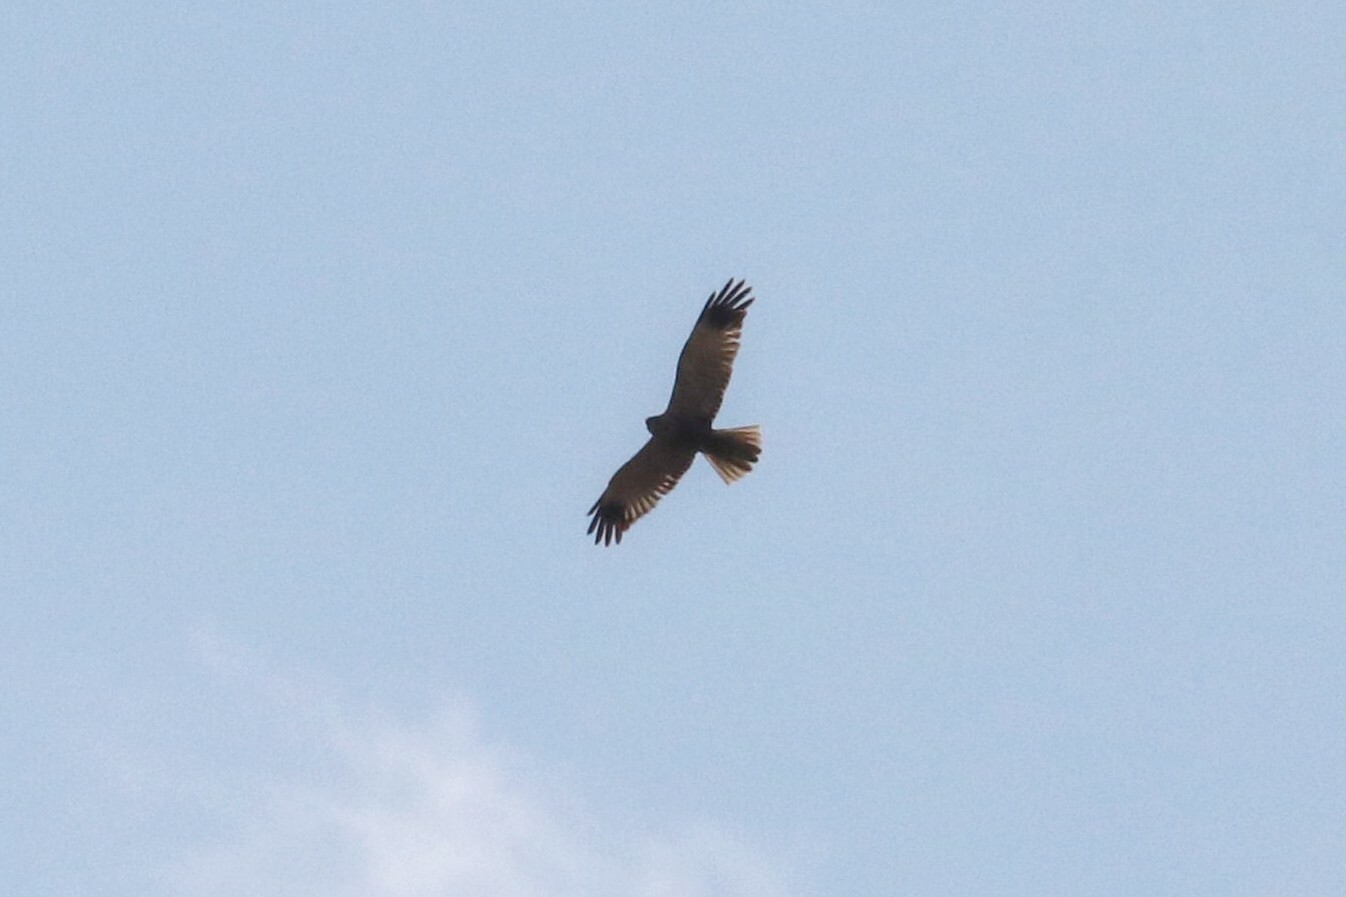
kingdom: Animalia
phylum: Chordata
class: Aves
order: Accipitriformes
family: Accipitridae
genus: Circus
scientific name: Circus aeruginosus
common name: Western marsh harrier
